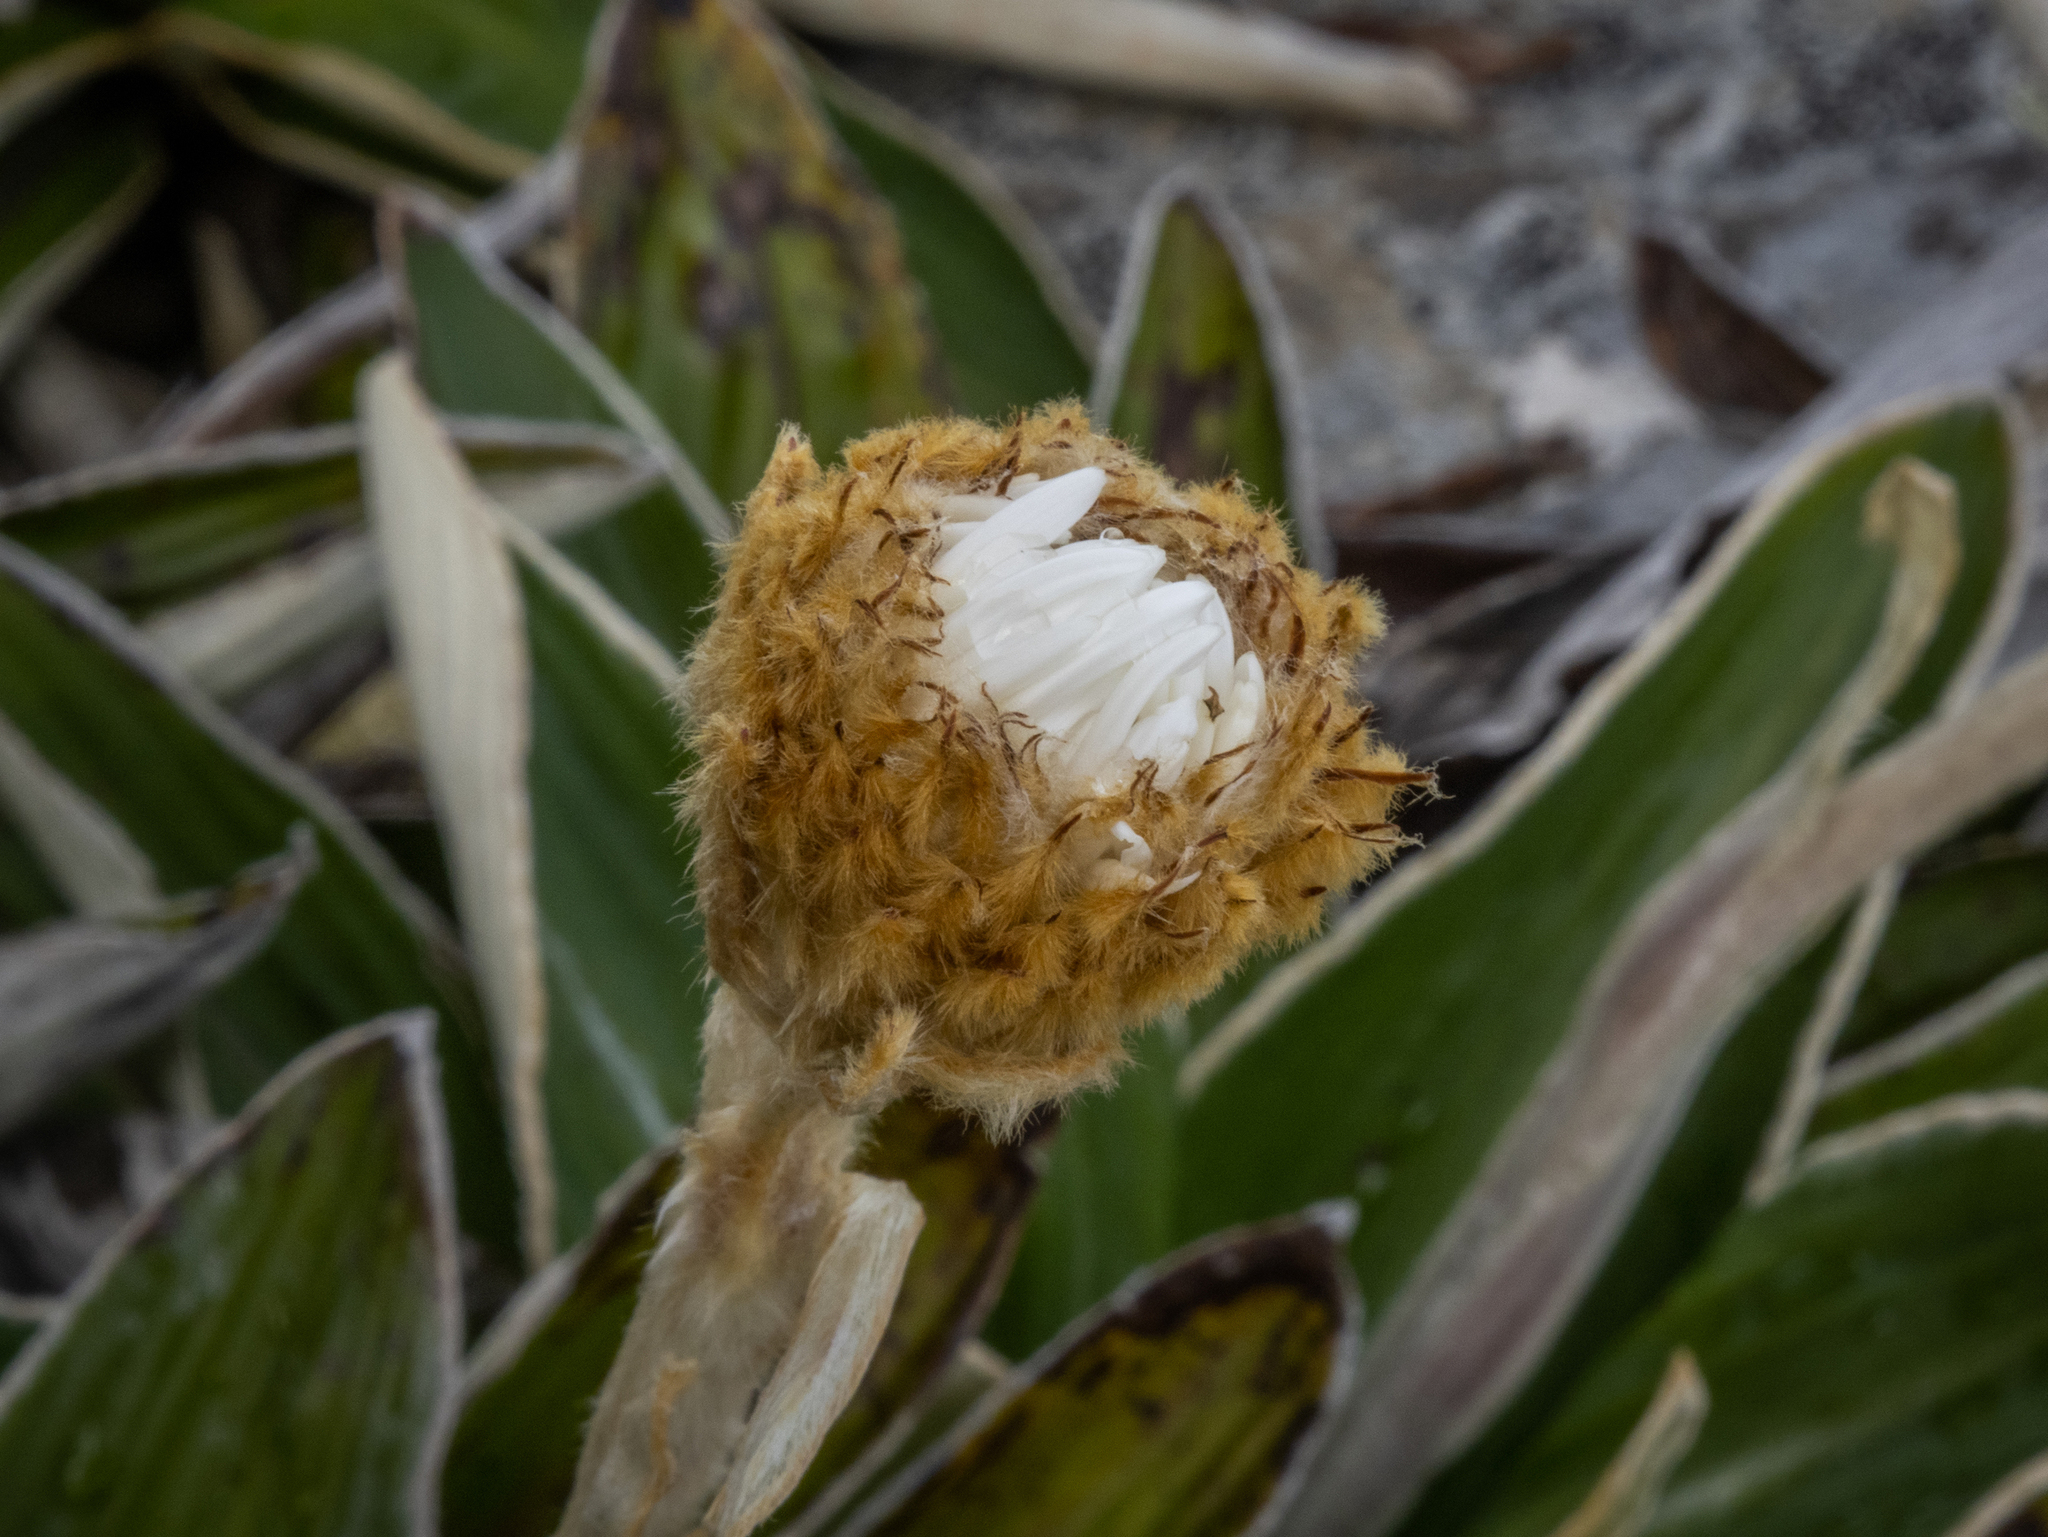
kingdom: Plantae
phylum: Tracheophyta
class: Magnoliopsida
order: Asterales
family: Asteraceae
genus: Celmisia
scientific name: Celmisia verbascifolia
